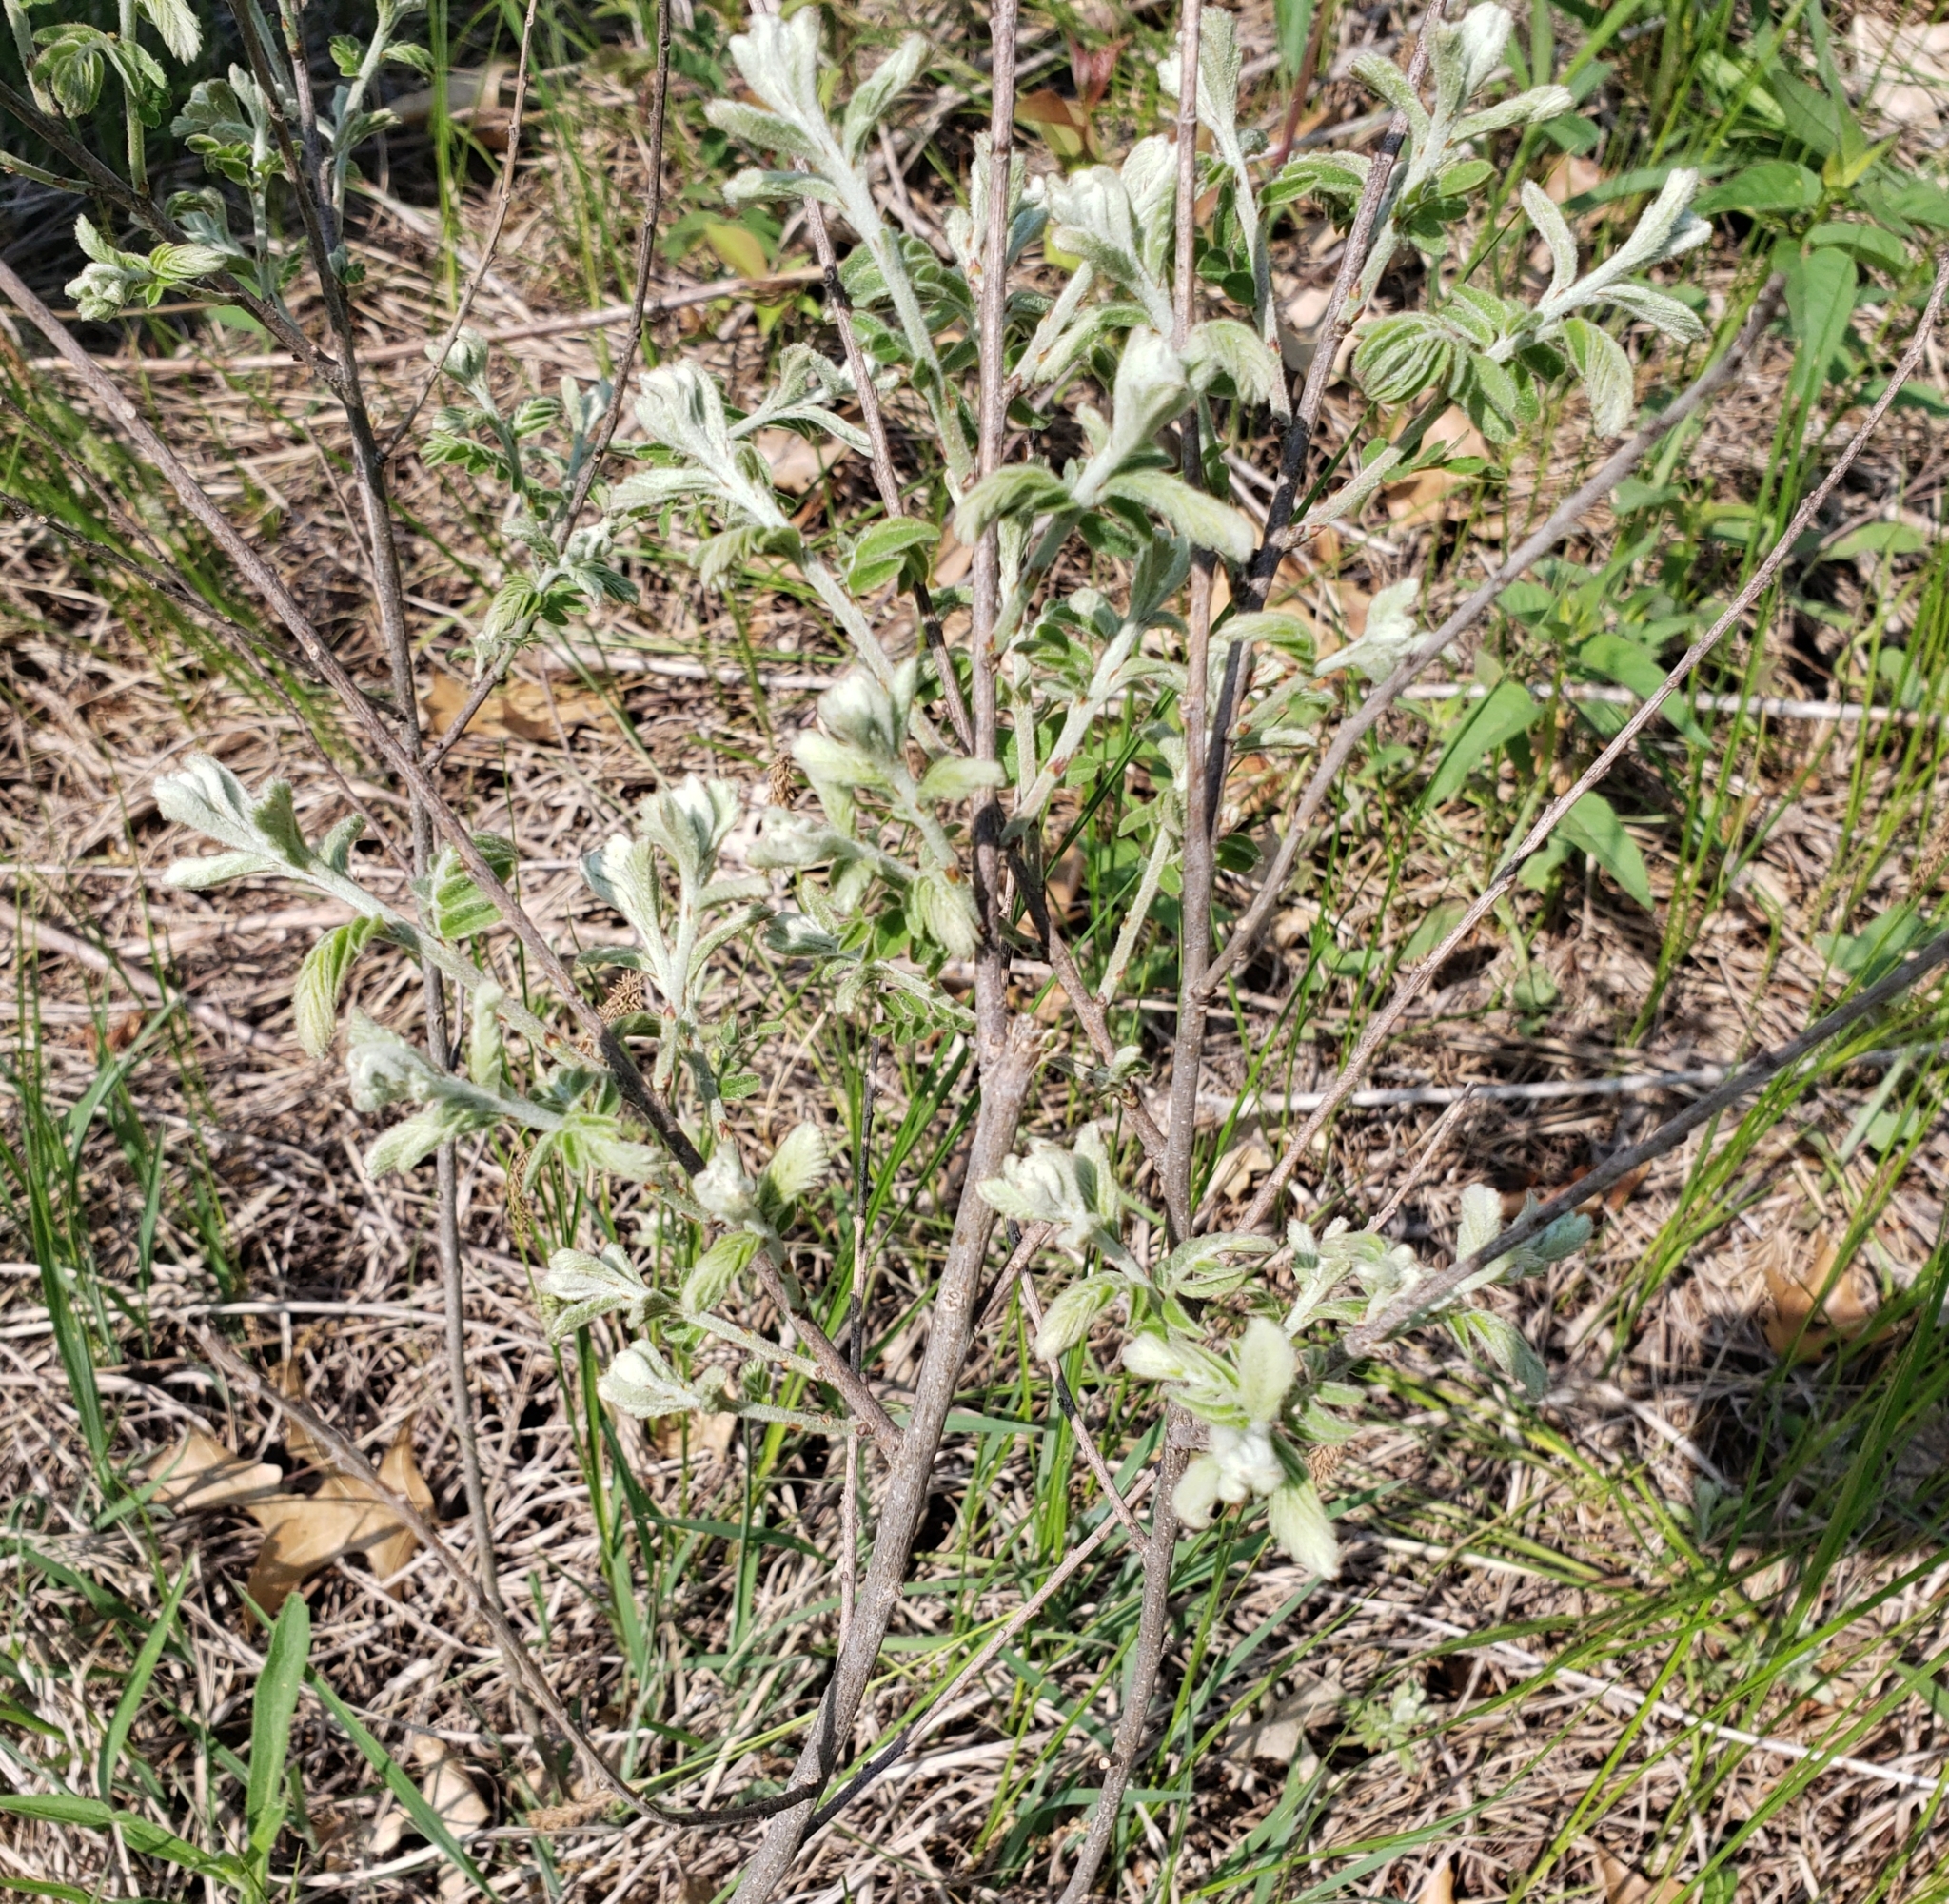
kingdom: Plantae
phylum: Tracheophyta
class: Magnoliopsida
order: Fabales
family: Fabaceae
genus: Amorpha
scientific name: Amorpha canescens
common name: Leadplant
